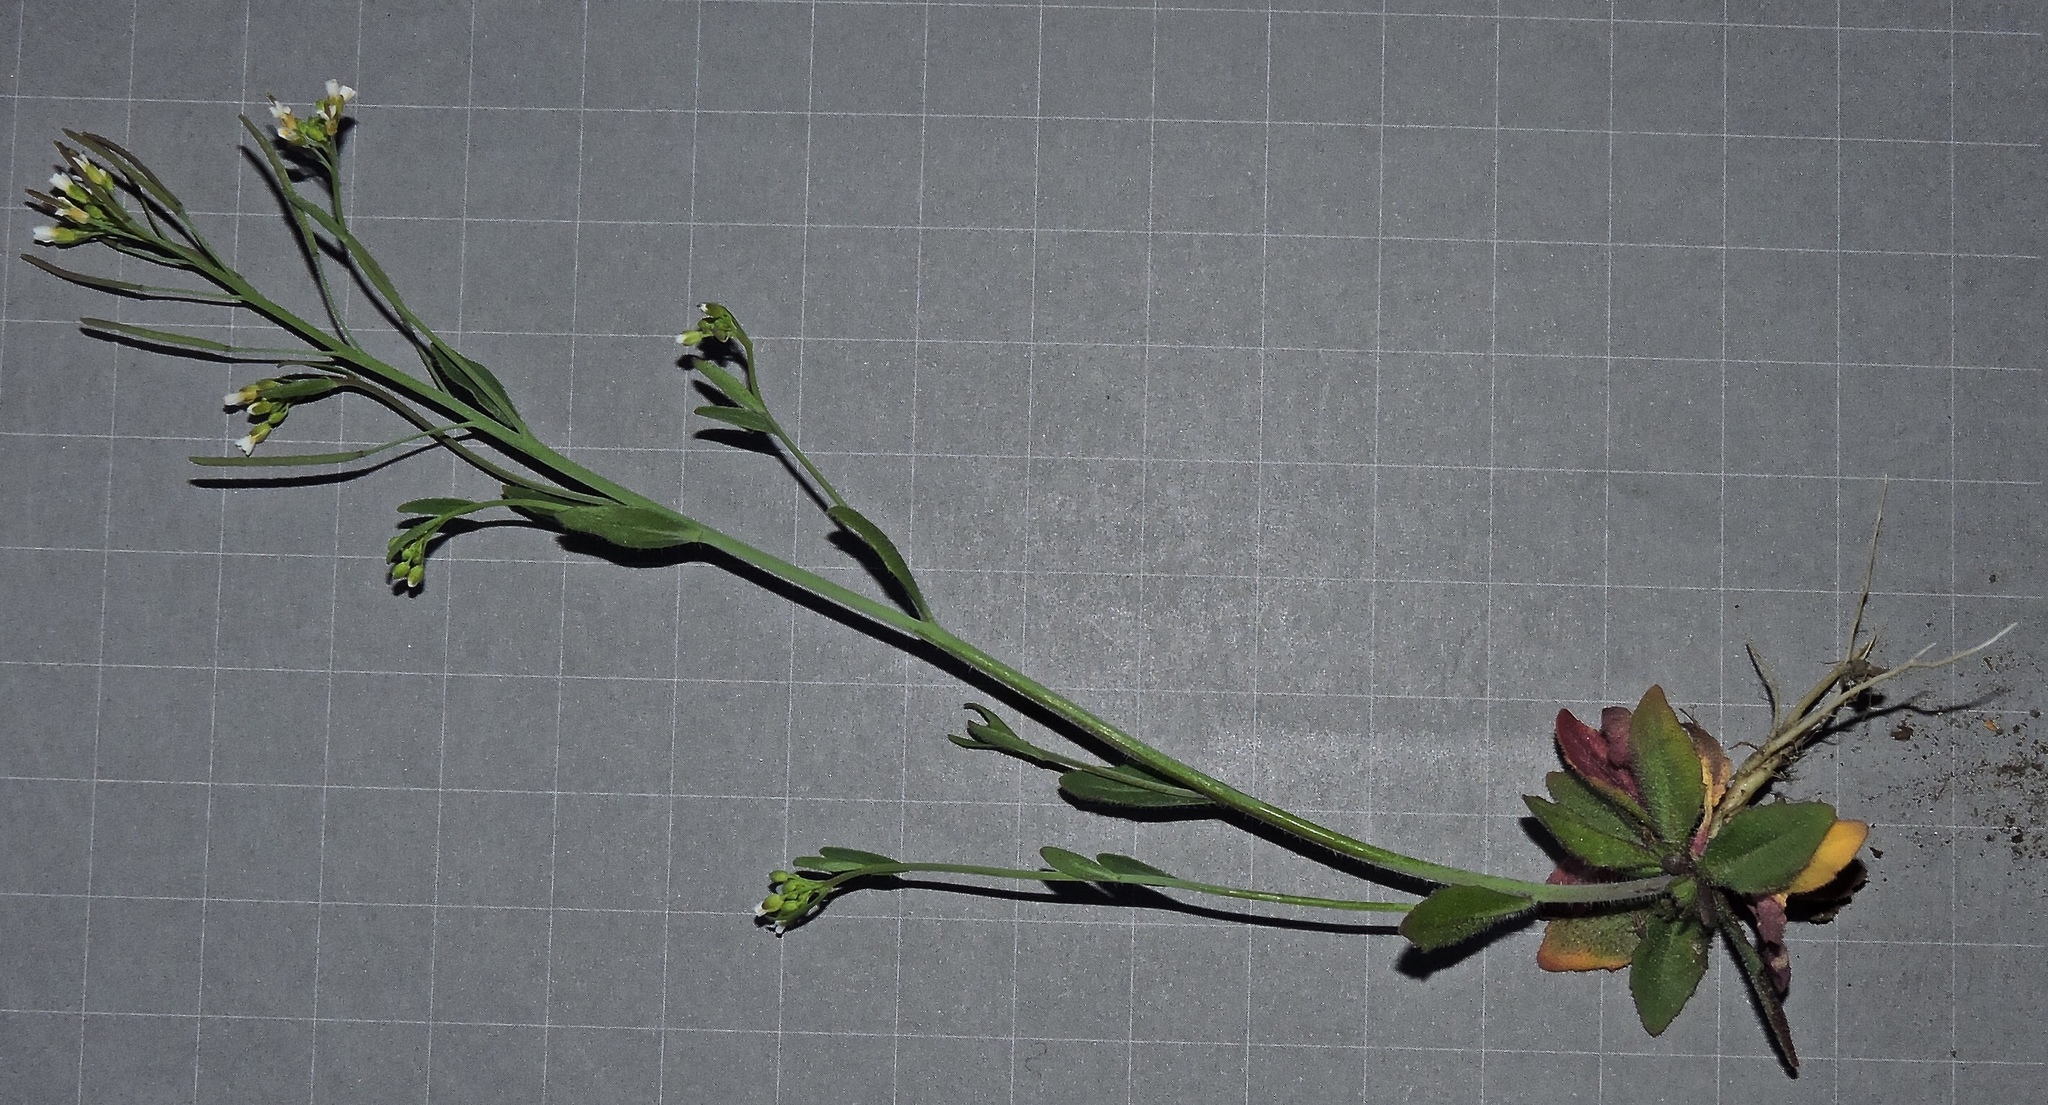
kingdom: Plantae
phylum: Tracheophyta
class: Magnoliopsida
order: Brassicales
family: Brassicaceae
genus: Arabidopsis
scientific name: Arabidopsis thaliana
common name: Thale cress
